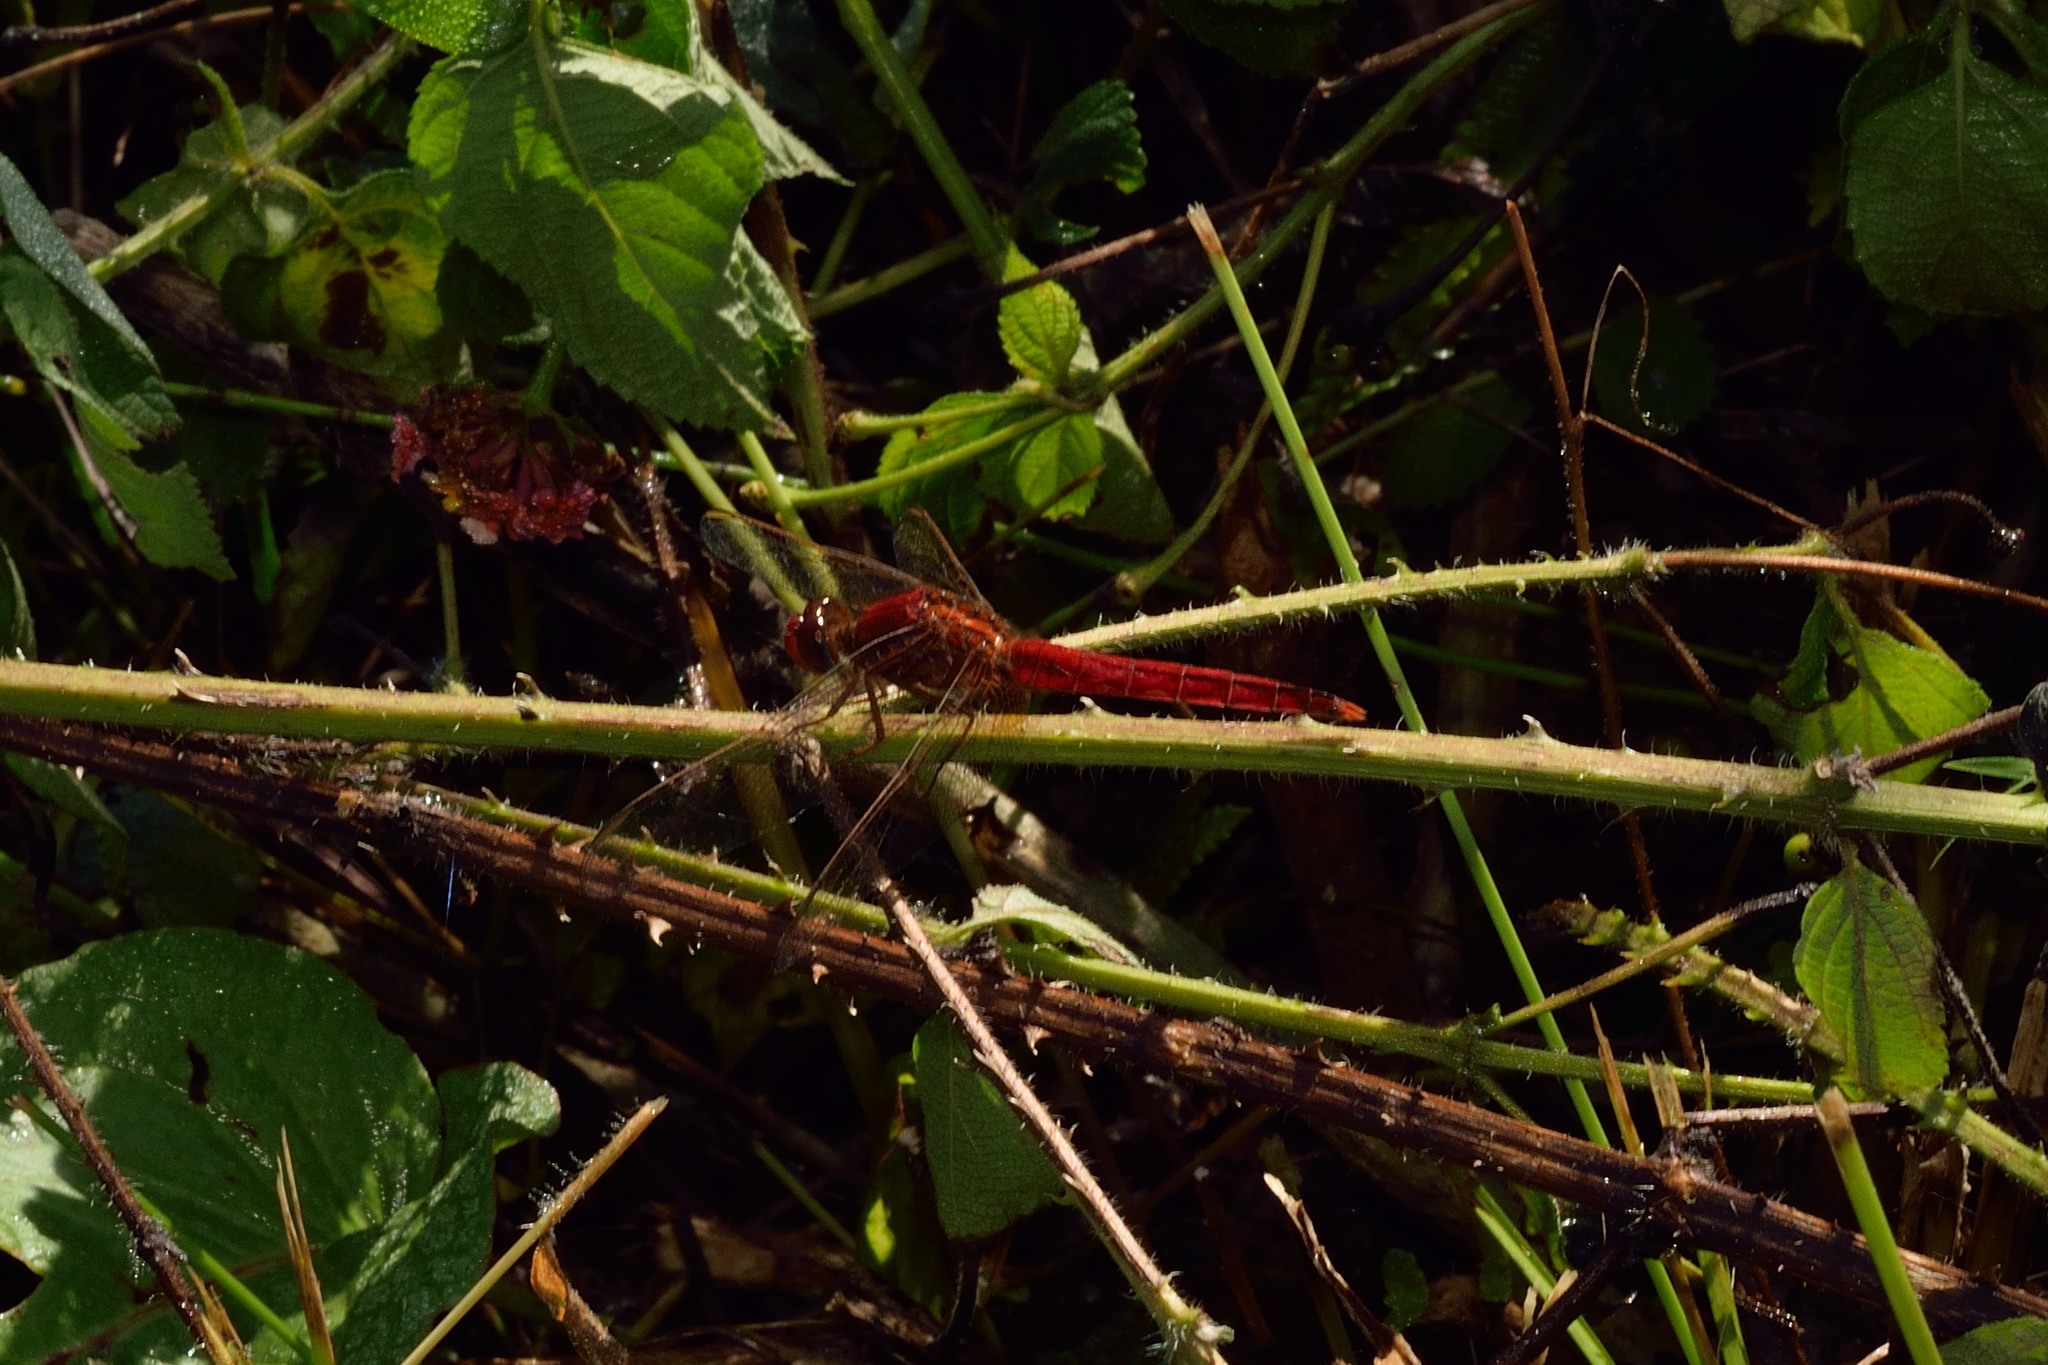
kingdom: Animalia
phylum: Arthropoda
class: Insecta
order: Odonata
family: Libellulidae
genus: Crocothemis
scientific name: Crocothemis servilia
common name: Scarlet skimmer
